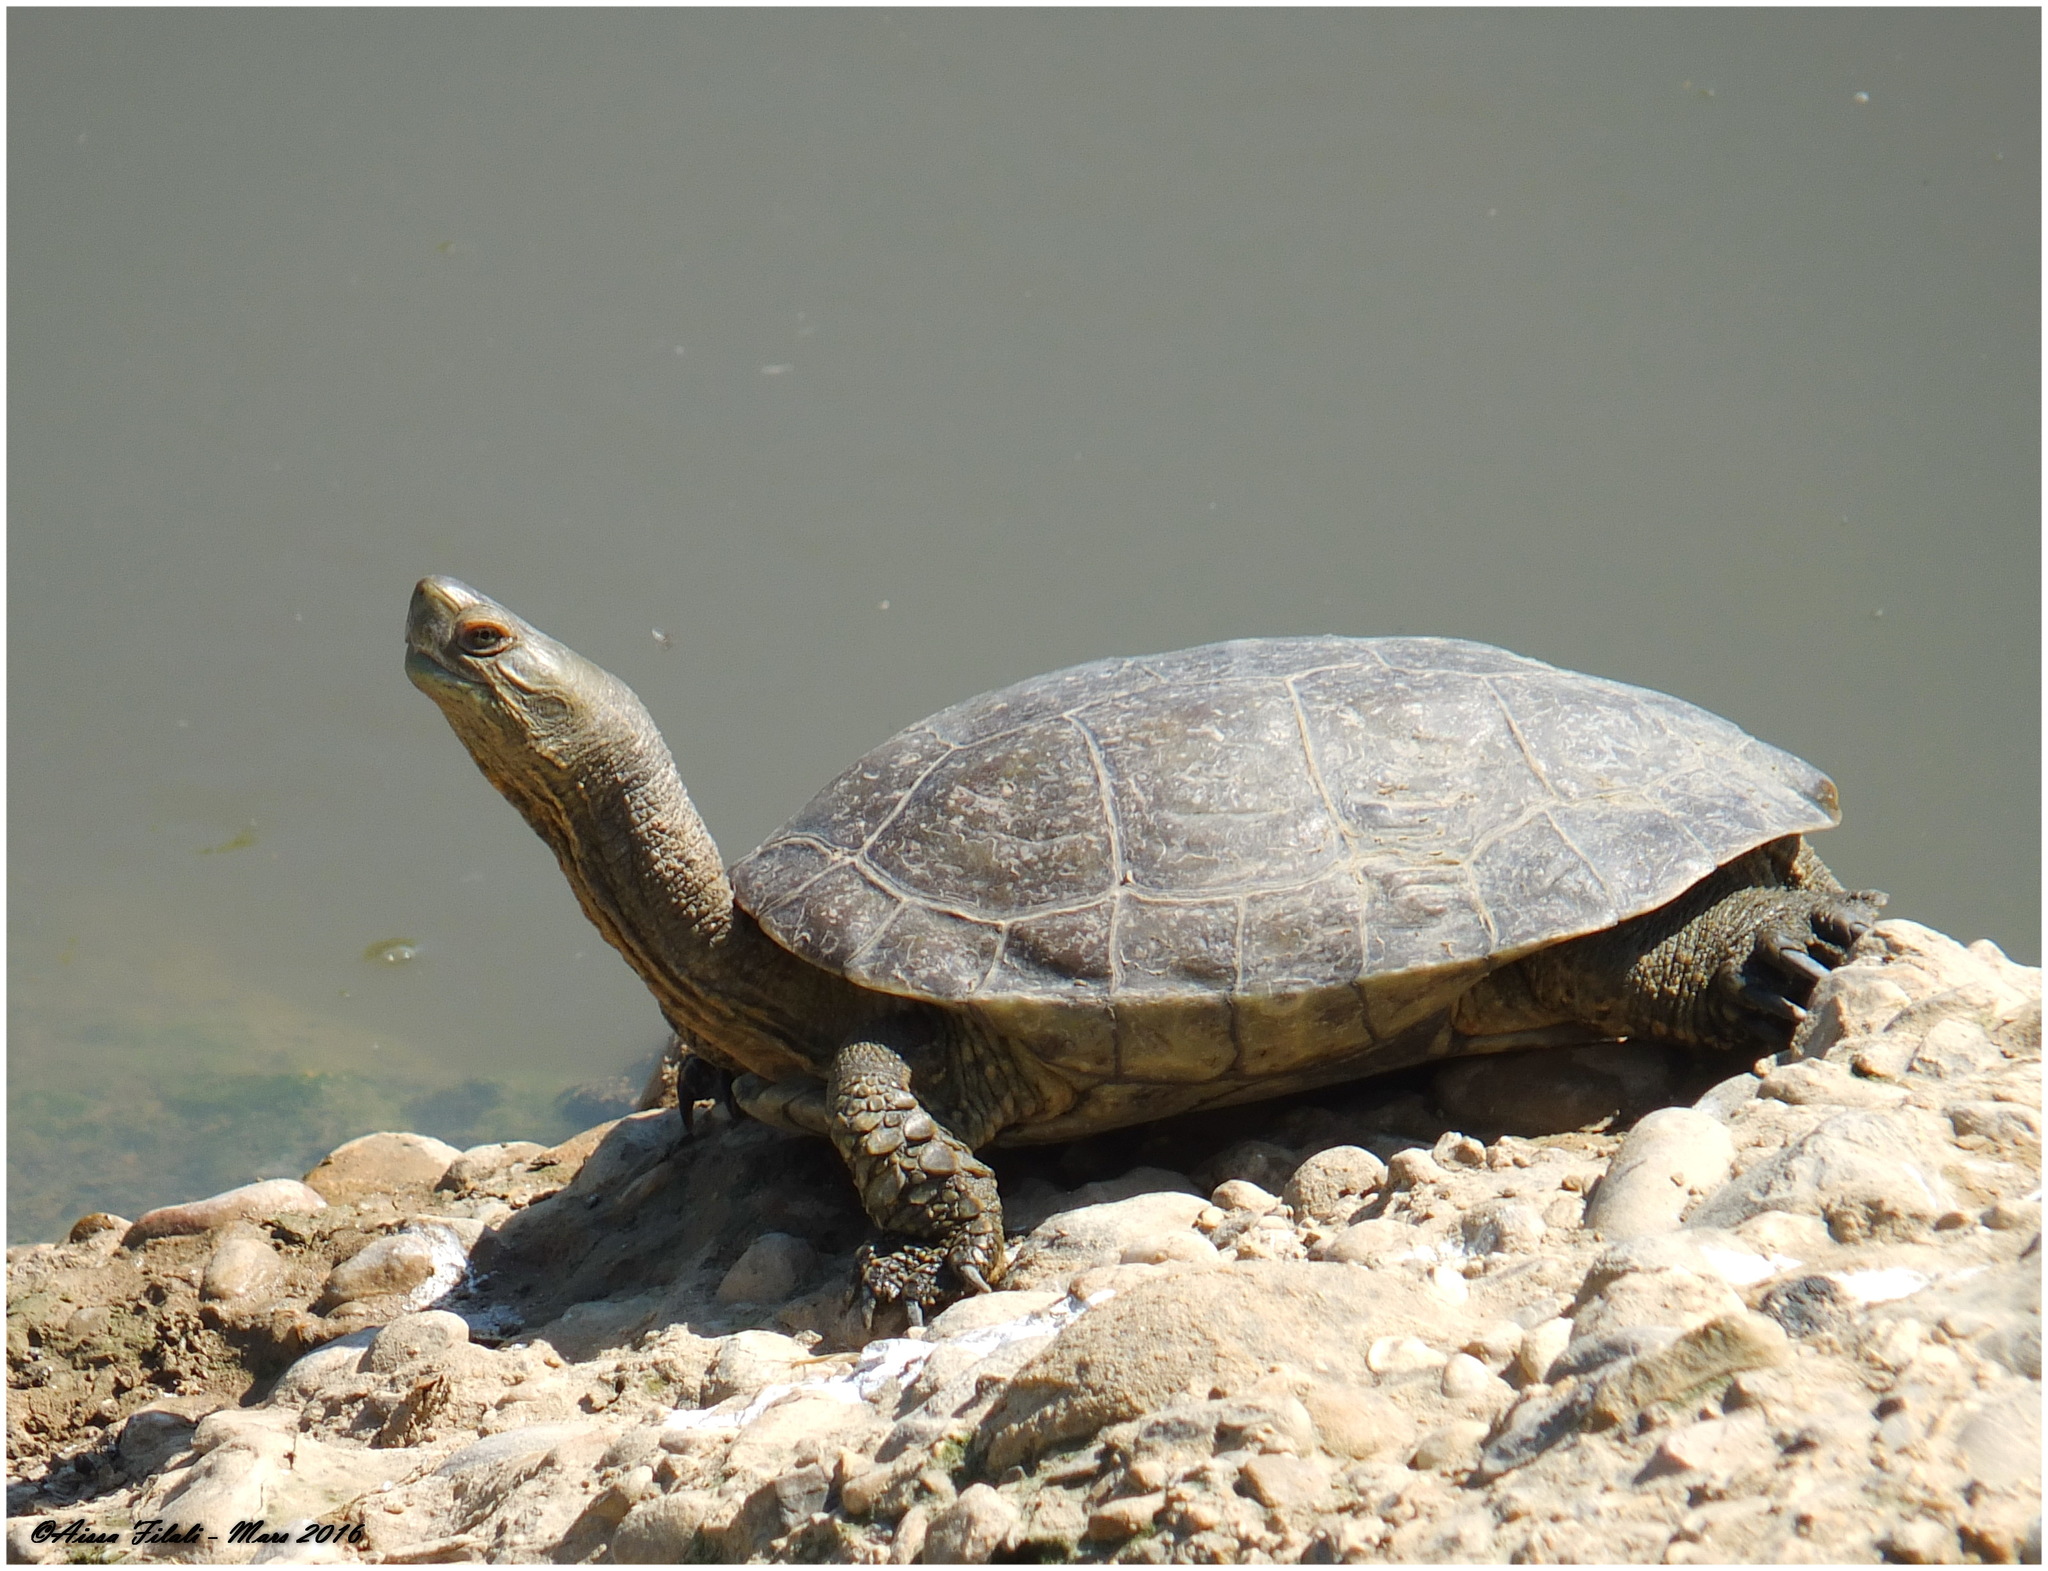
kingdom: Animalia
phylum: Chordata
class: Testudines
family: Geoemydidae
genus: Mauremys
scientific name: Mauremys leprosa
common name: Mediterranean pond turtle
